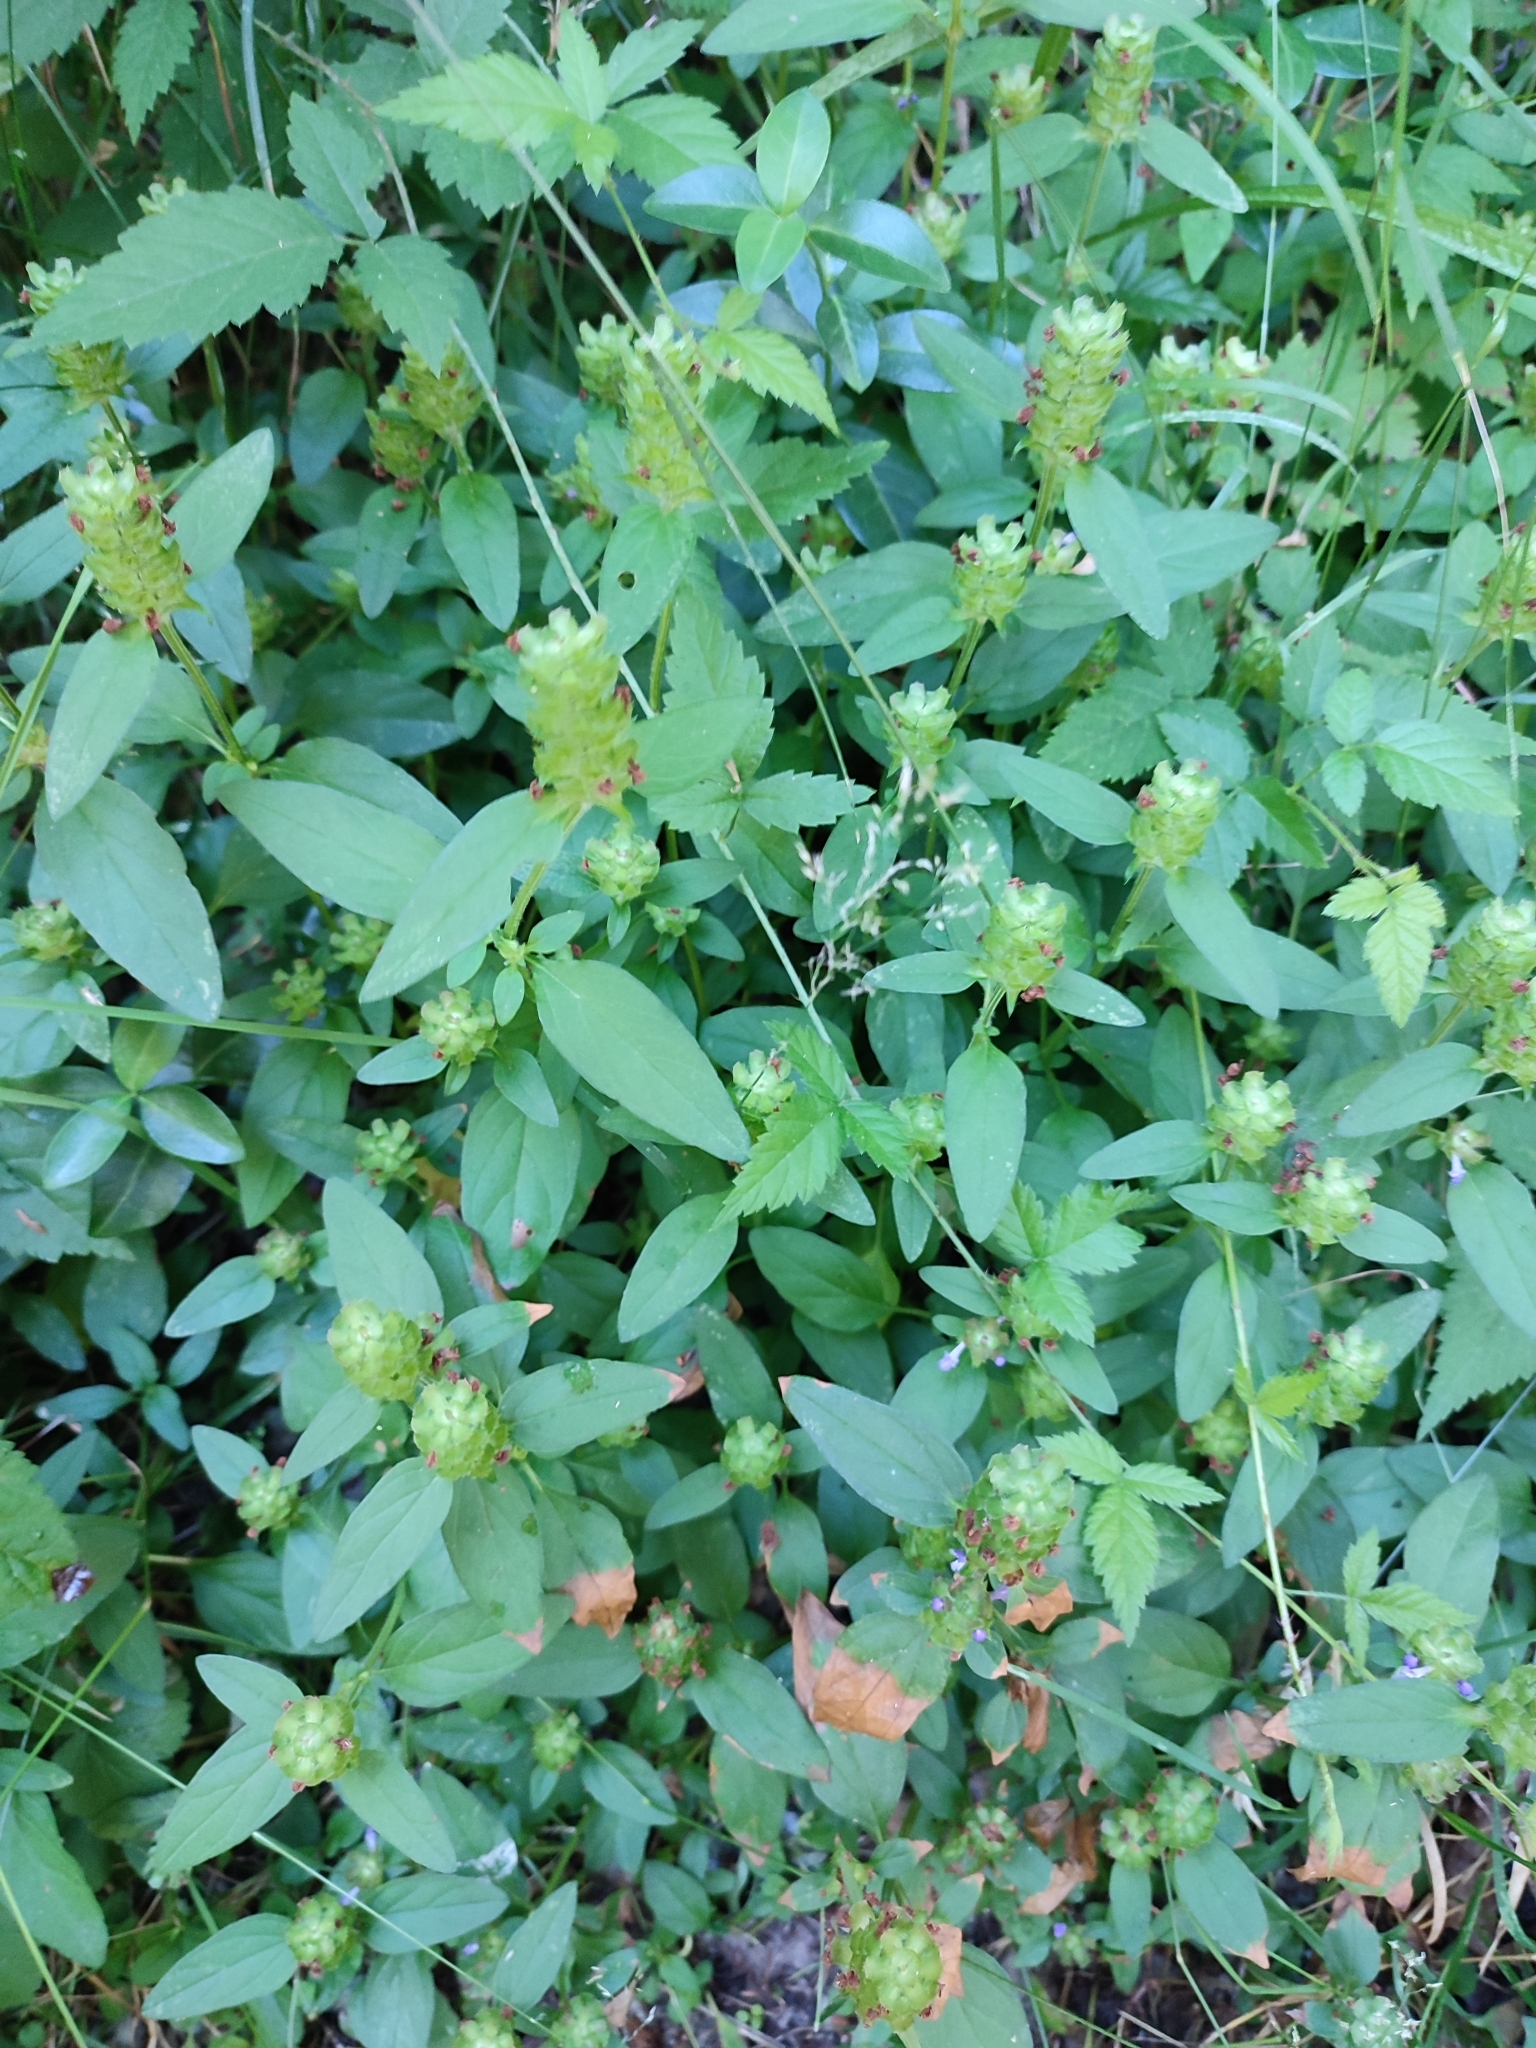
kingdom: Plantae
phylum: Tracheophyta
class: Magnoliopsida
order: Lamiales
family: Lamiaceae
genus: Prunella
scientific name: Prunella vulgaris
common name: Heal-all
